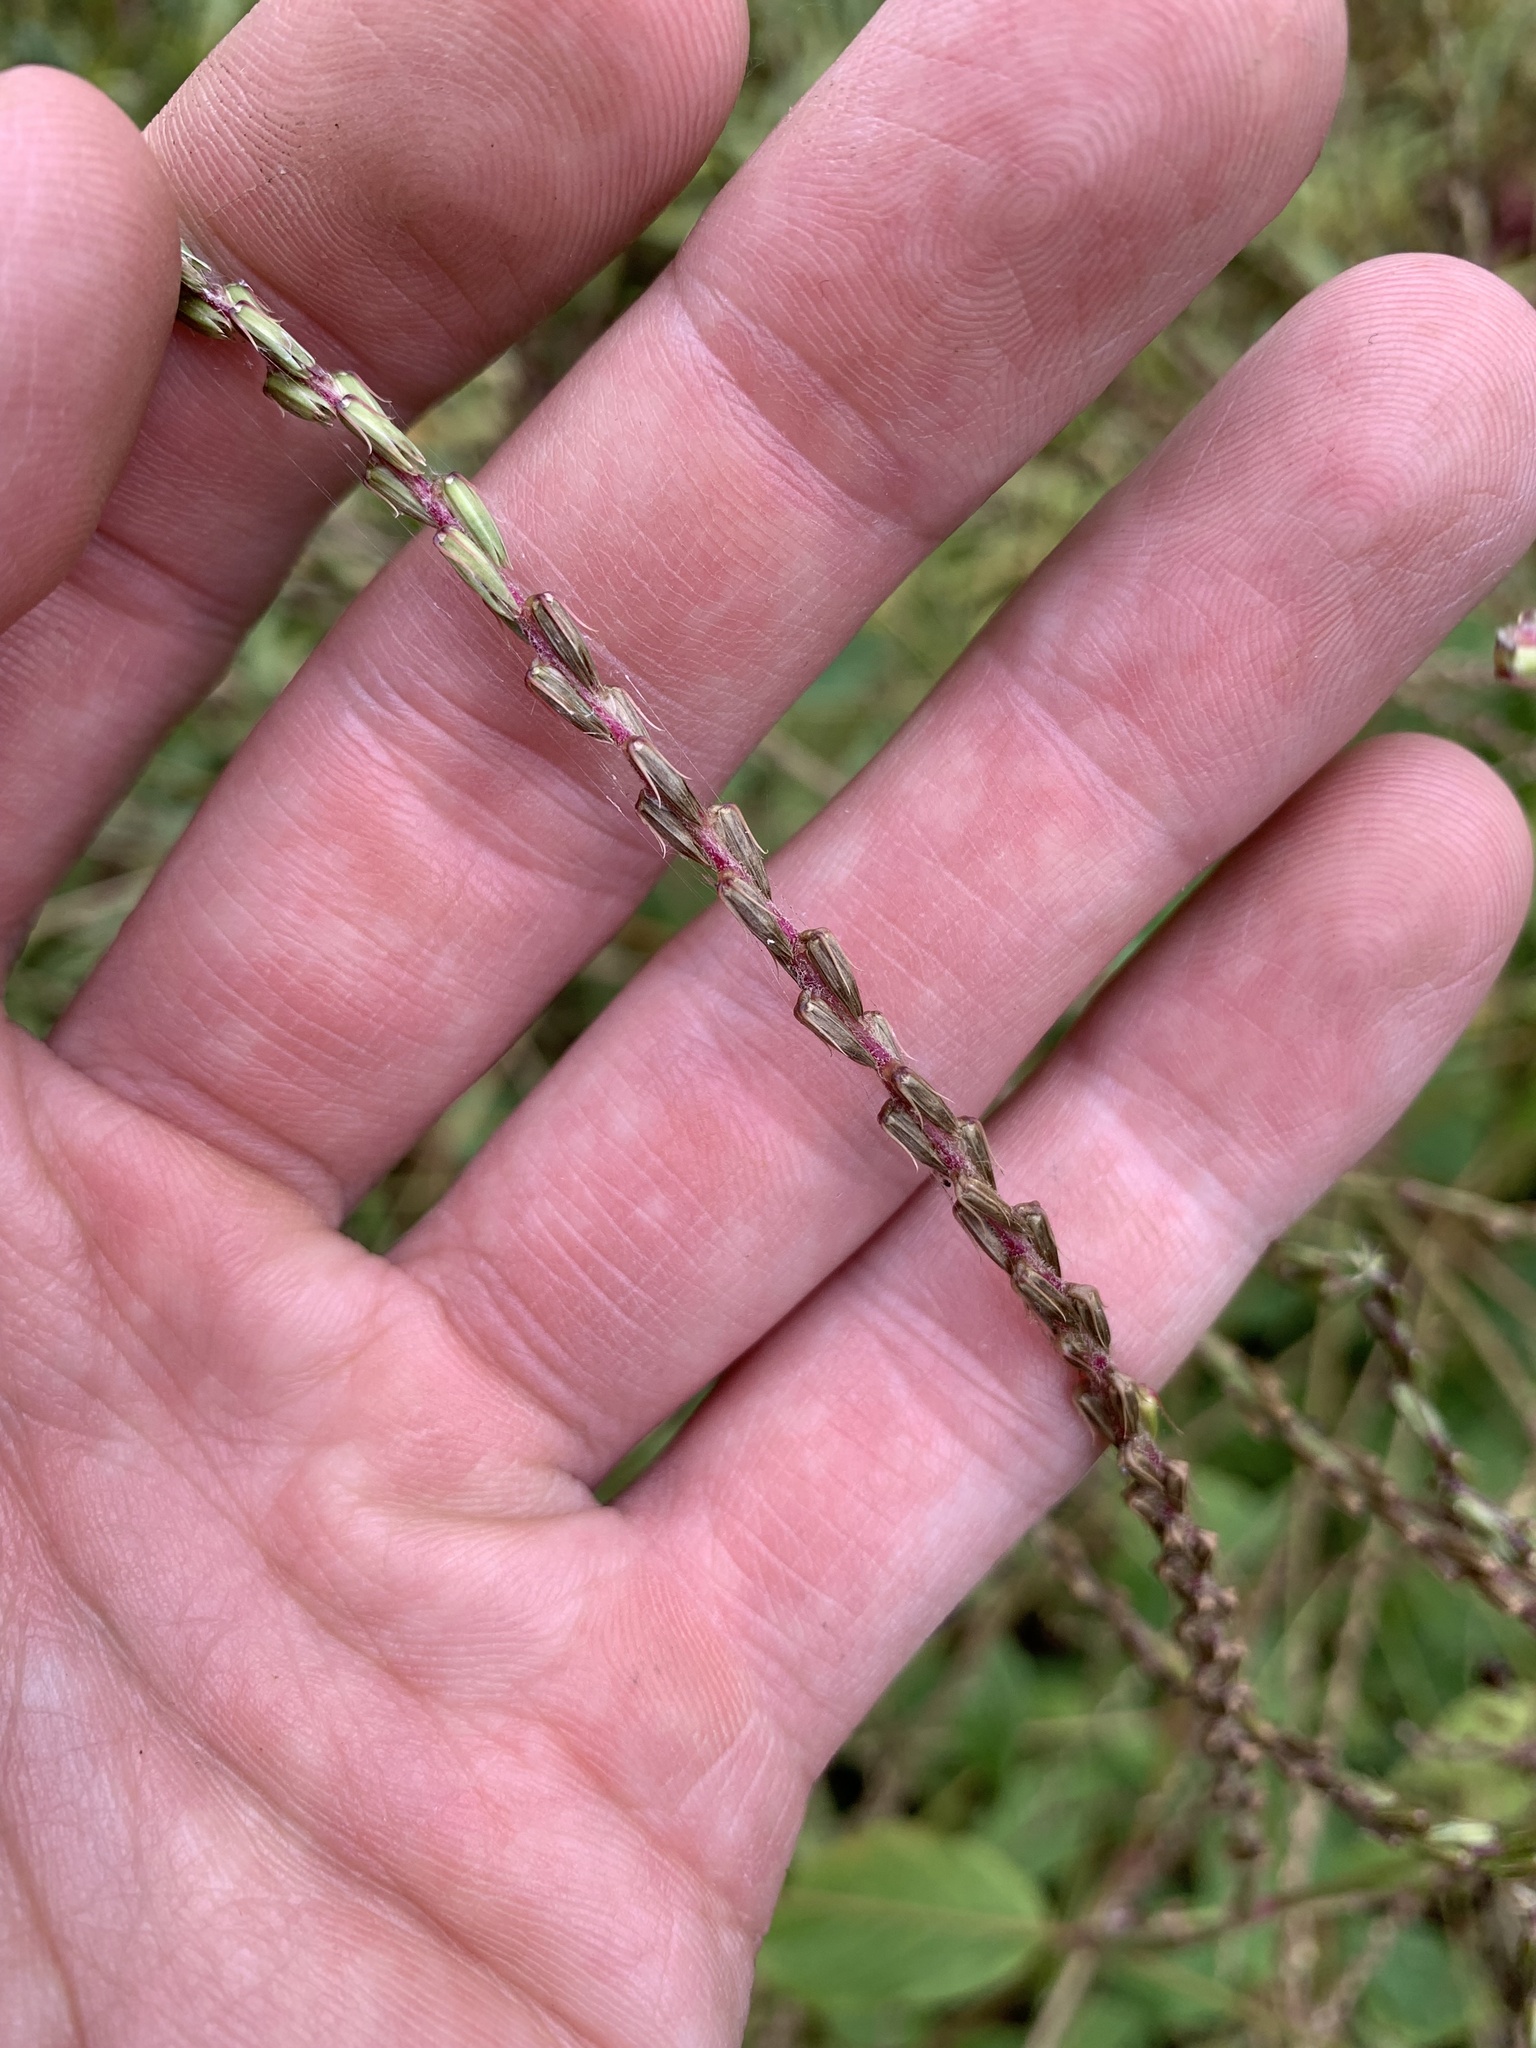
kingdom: Plantae
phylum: Tracheophyta
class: Magnoliopsida
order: Caryophyllales
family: Amaranthaceae
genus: Achyranthes
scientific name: Achyranthes bidentata
